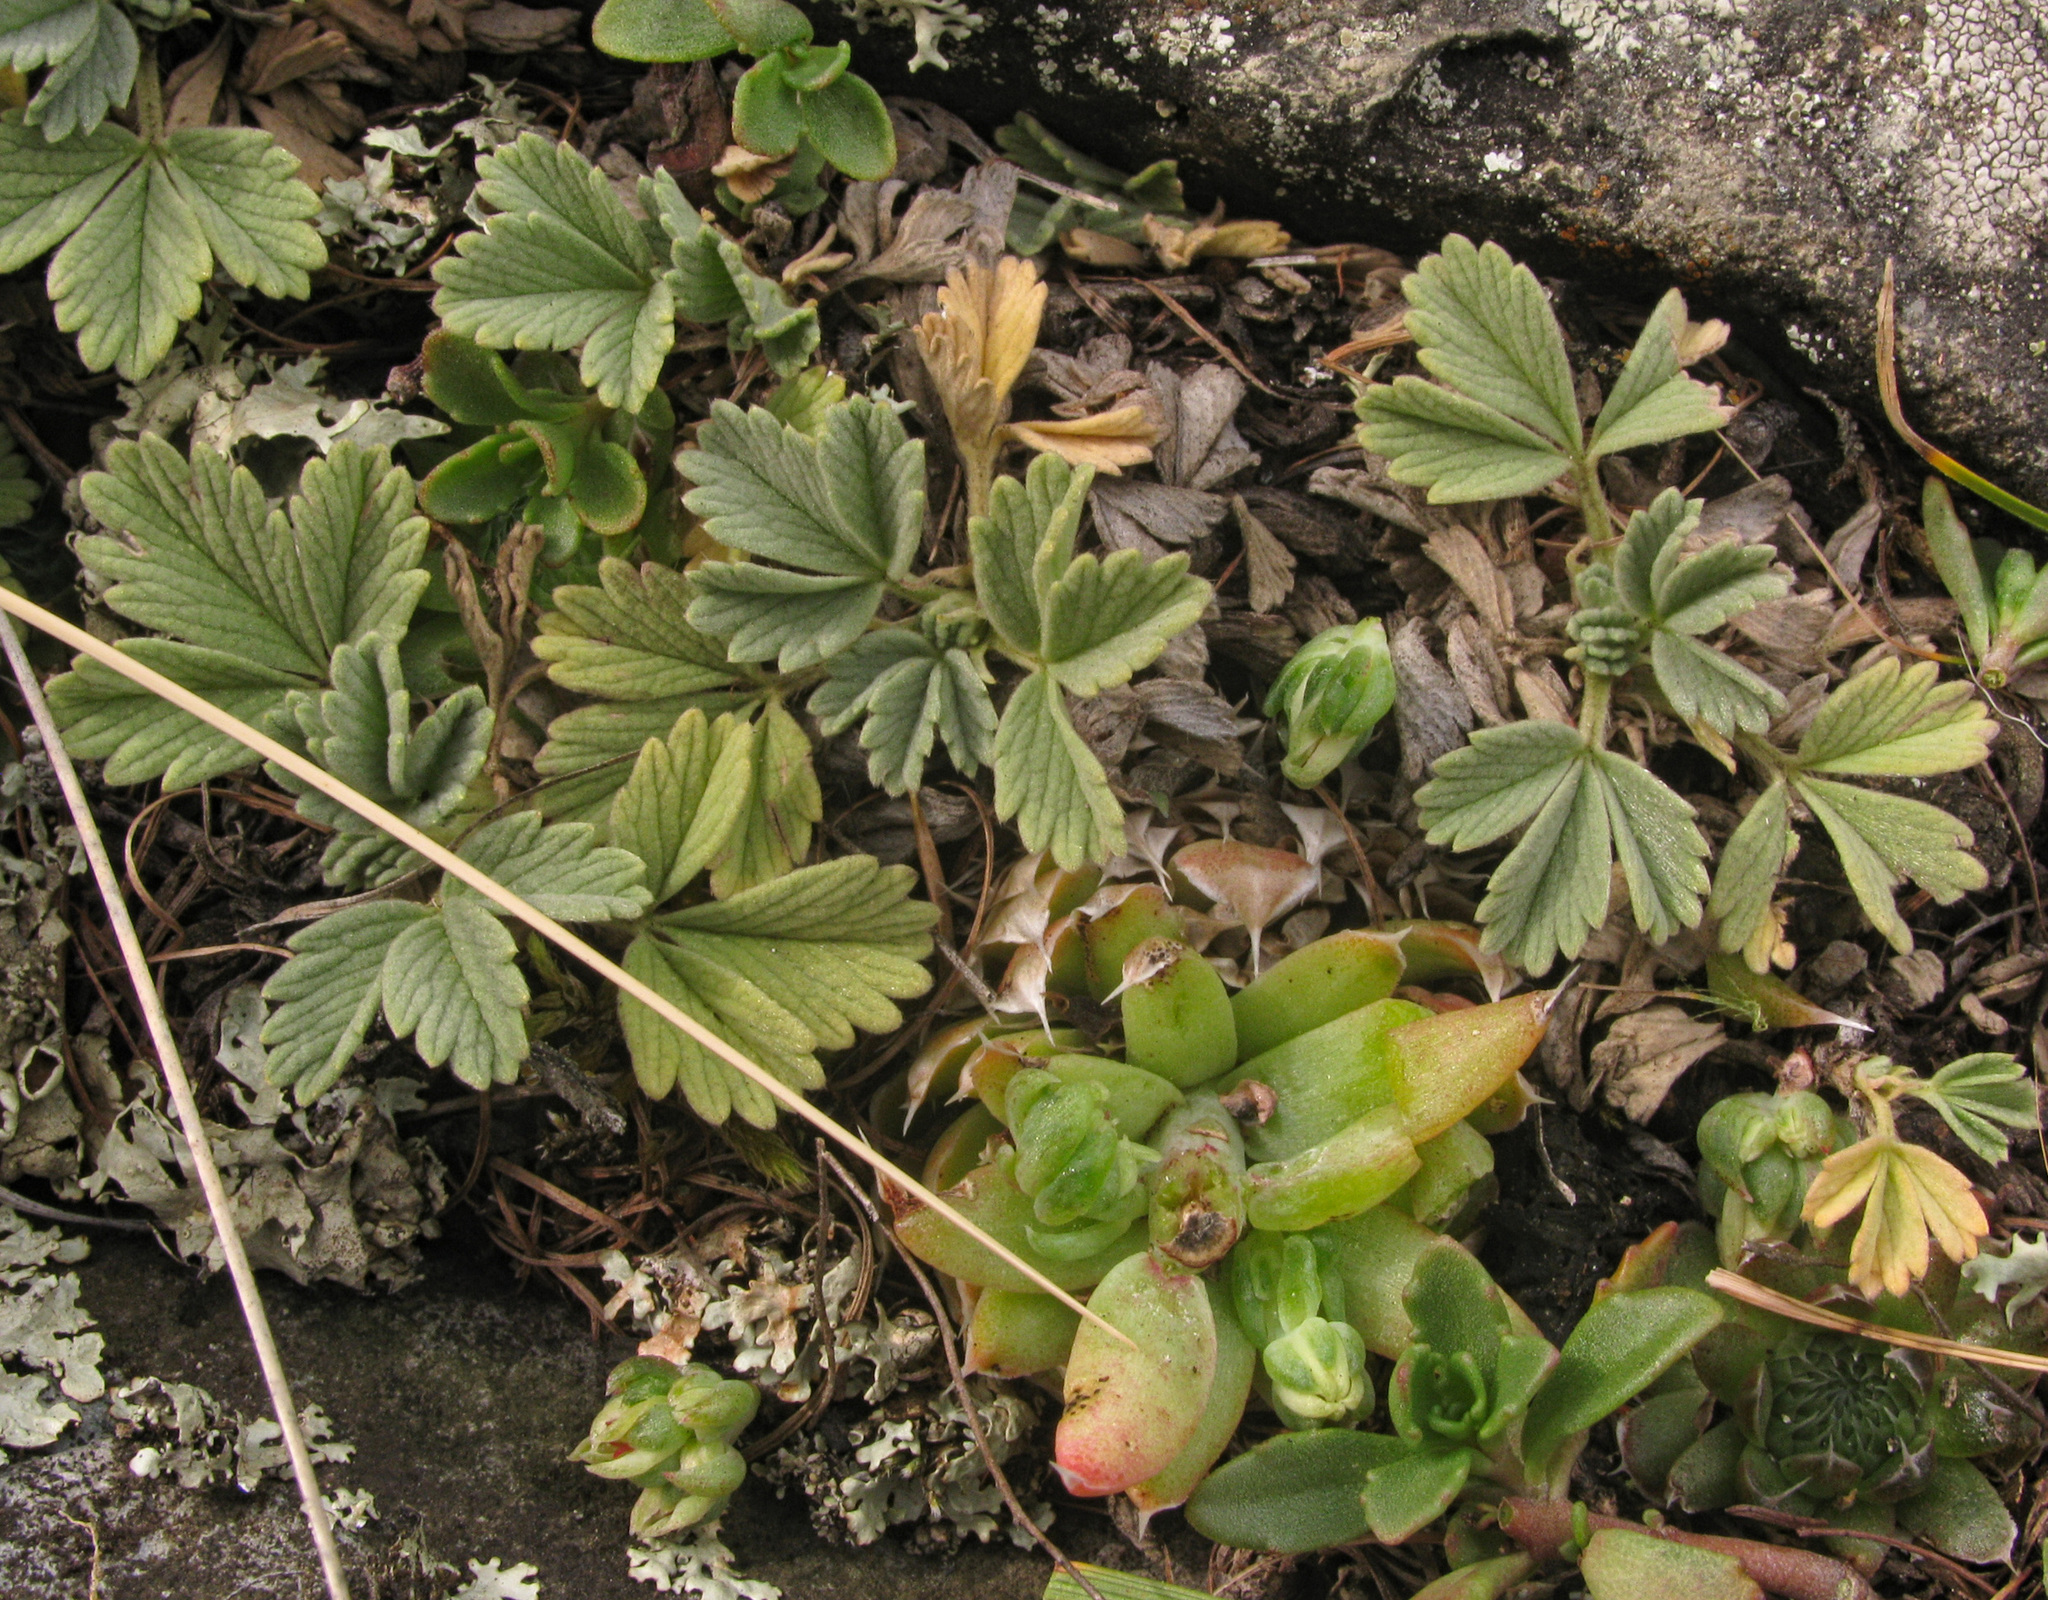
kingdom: Plantae
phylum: Tracheophyta
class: Magnoliopsida
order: Rosales
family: Rosaceae
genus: Potentilla
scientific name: Potentilla acaulis
